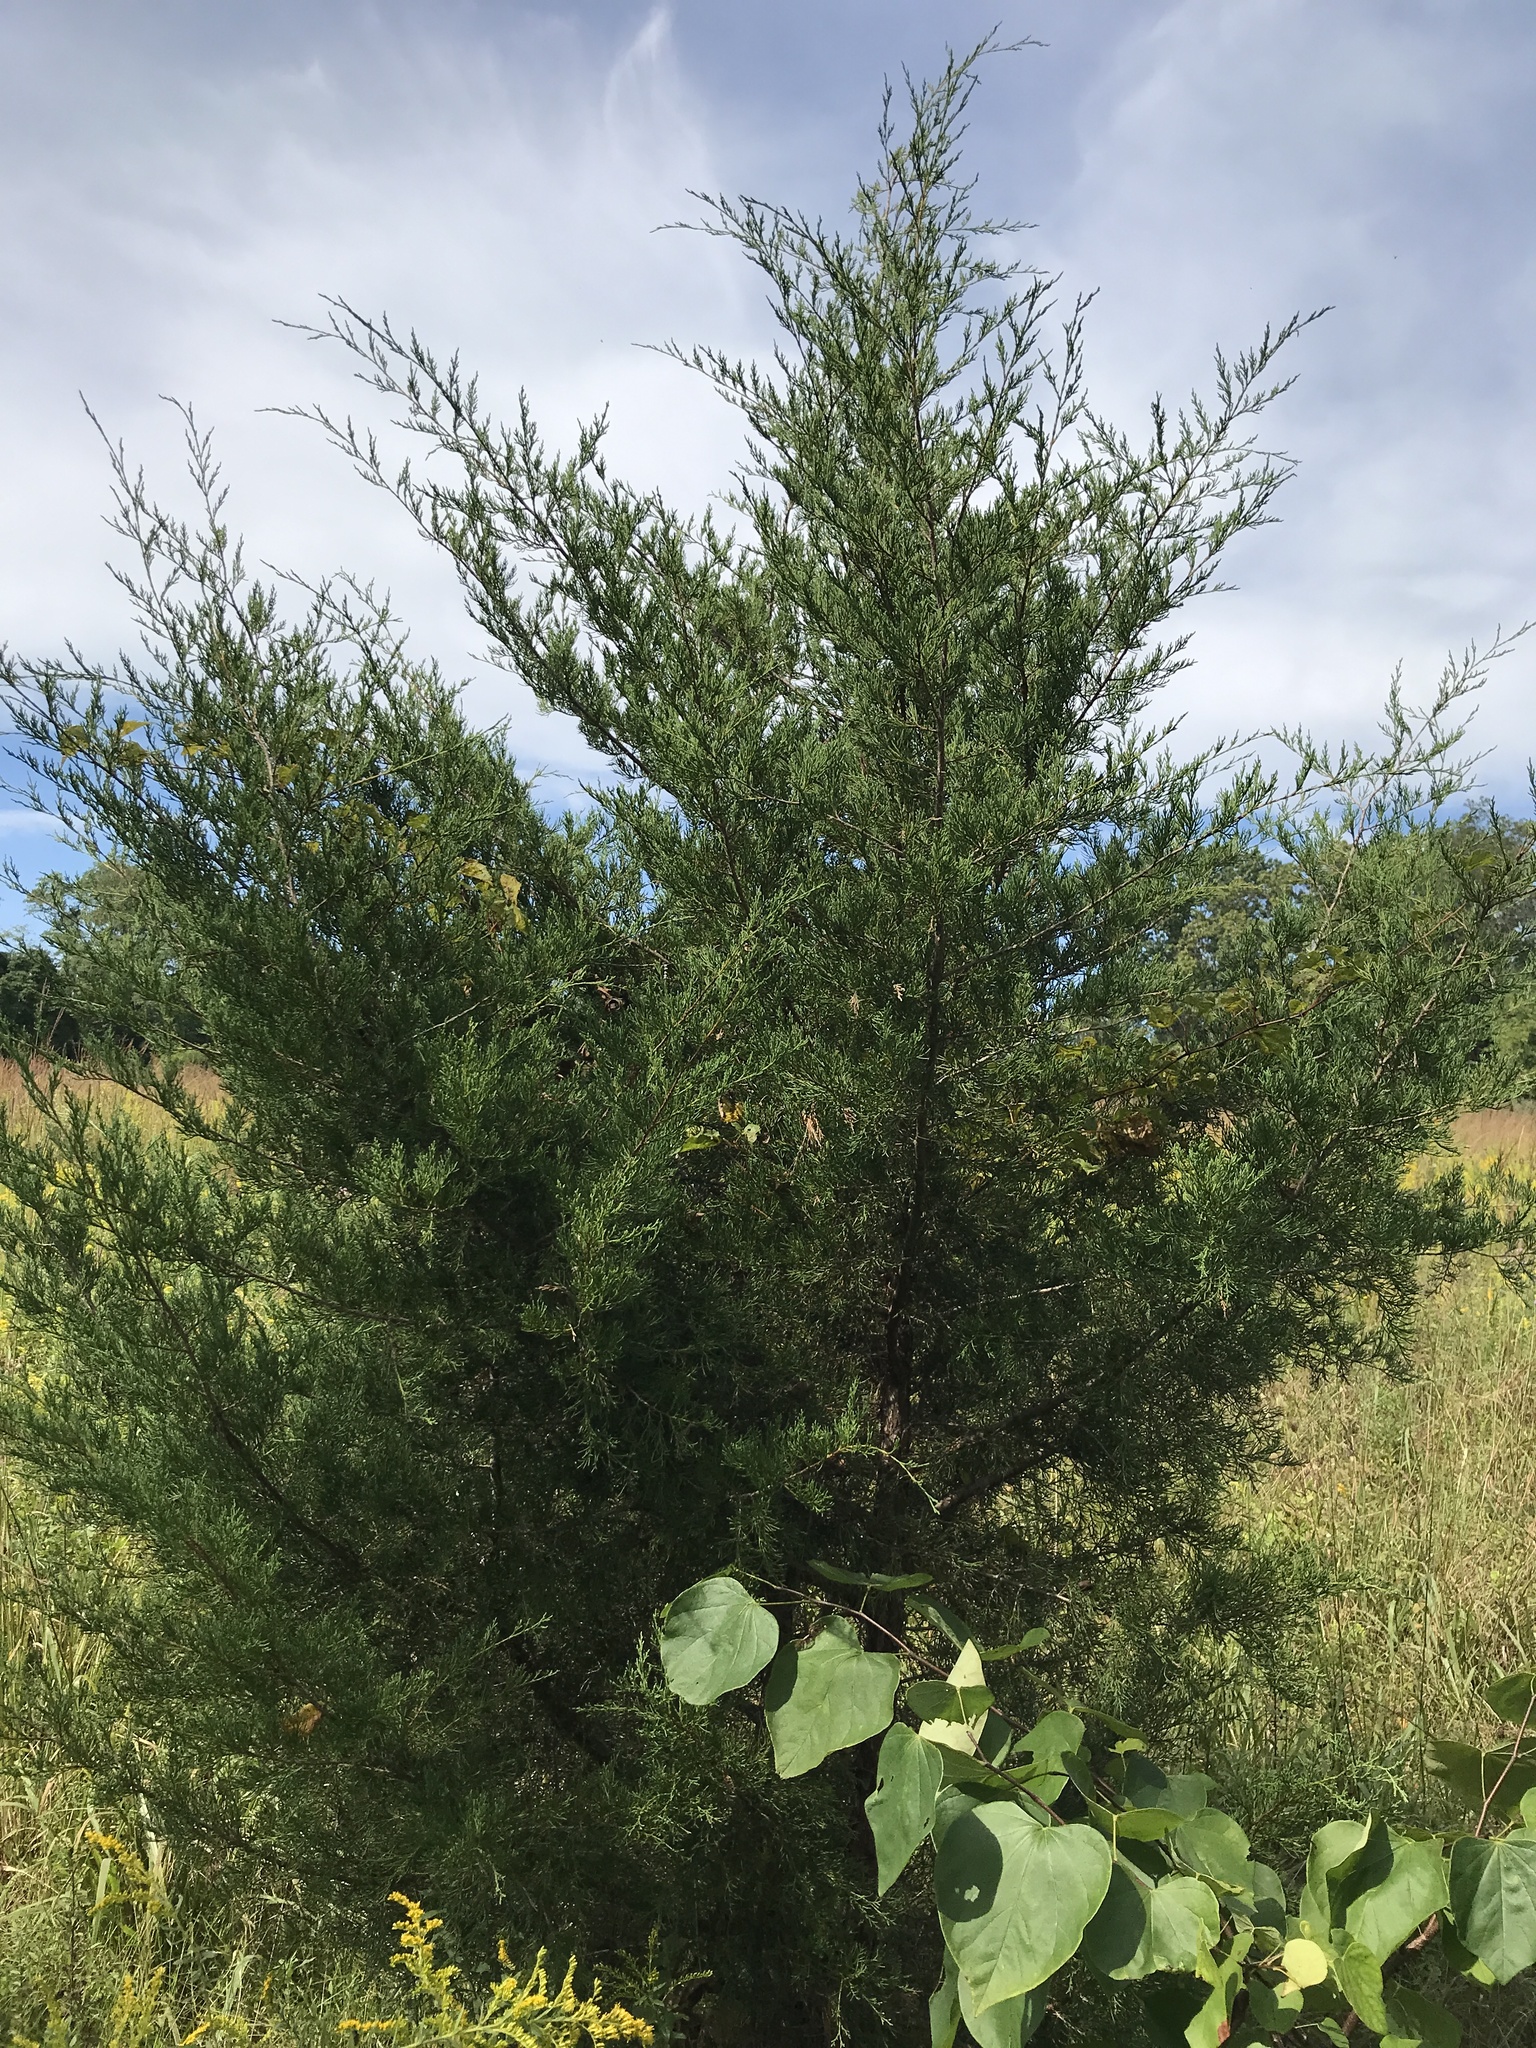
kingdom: Plantae
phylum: Tracheophyta
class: Pinopsida
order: Pinales
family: Cupressaceae
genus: Juniperus
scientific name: Juniperus virginiana
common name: Red juniper
